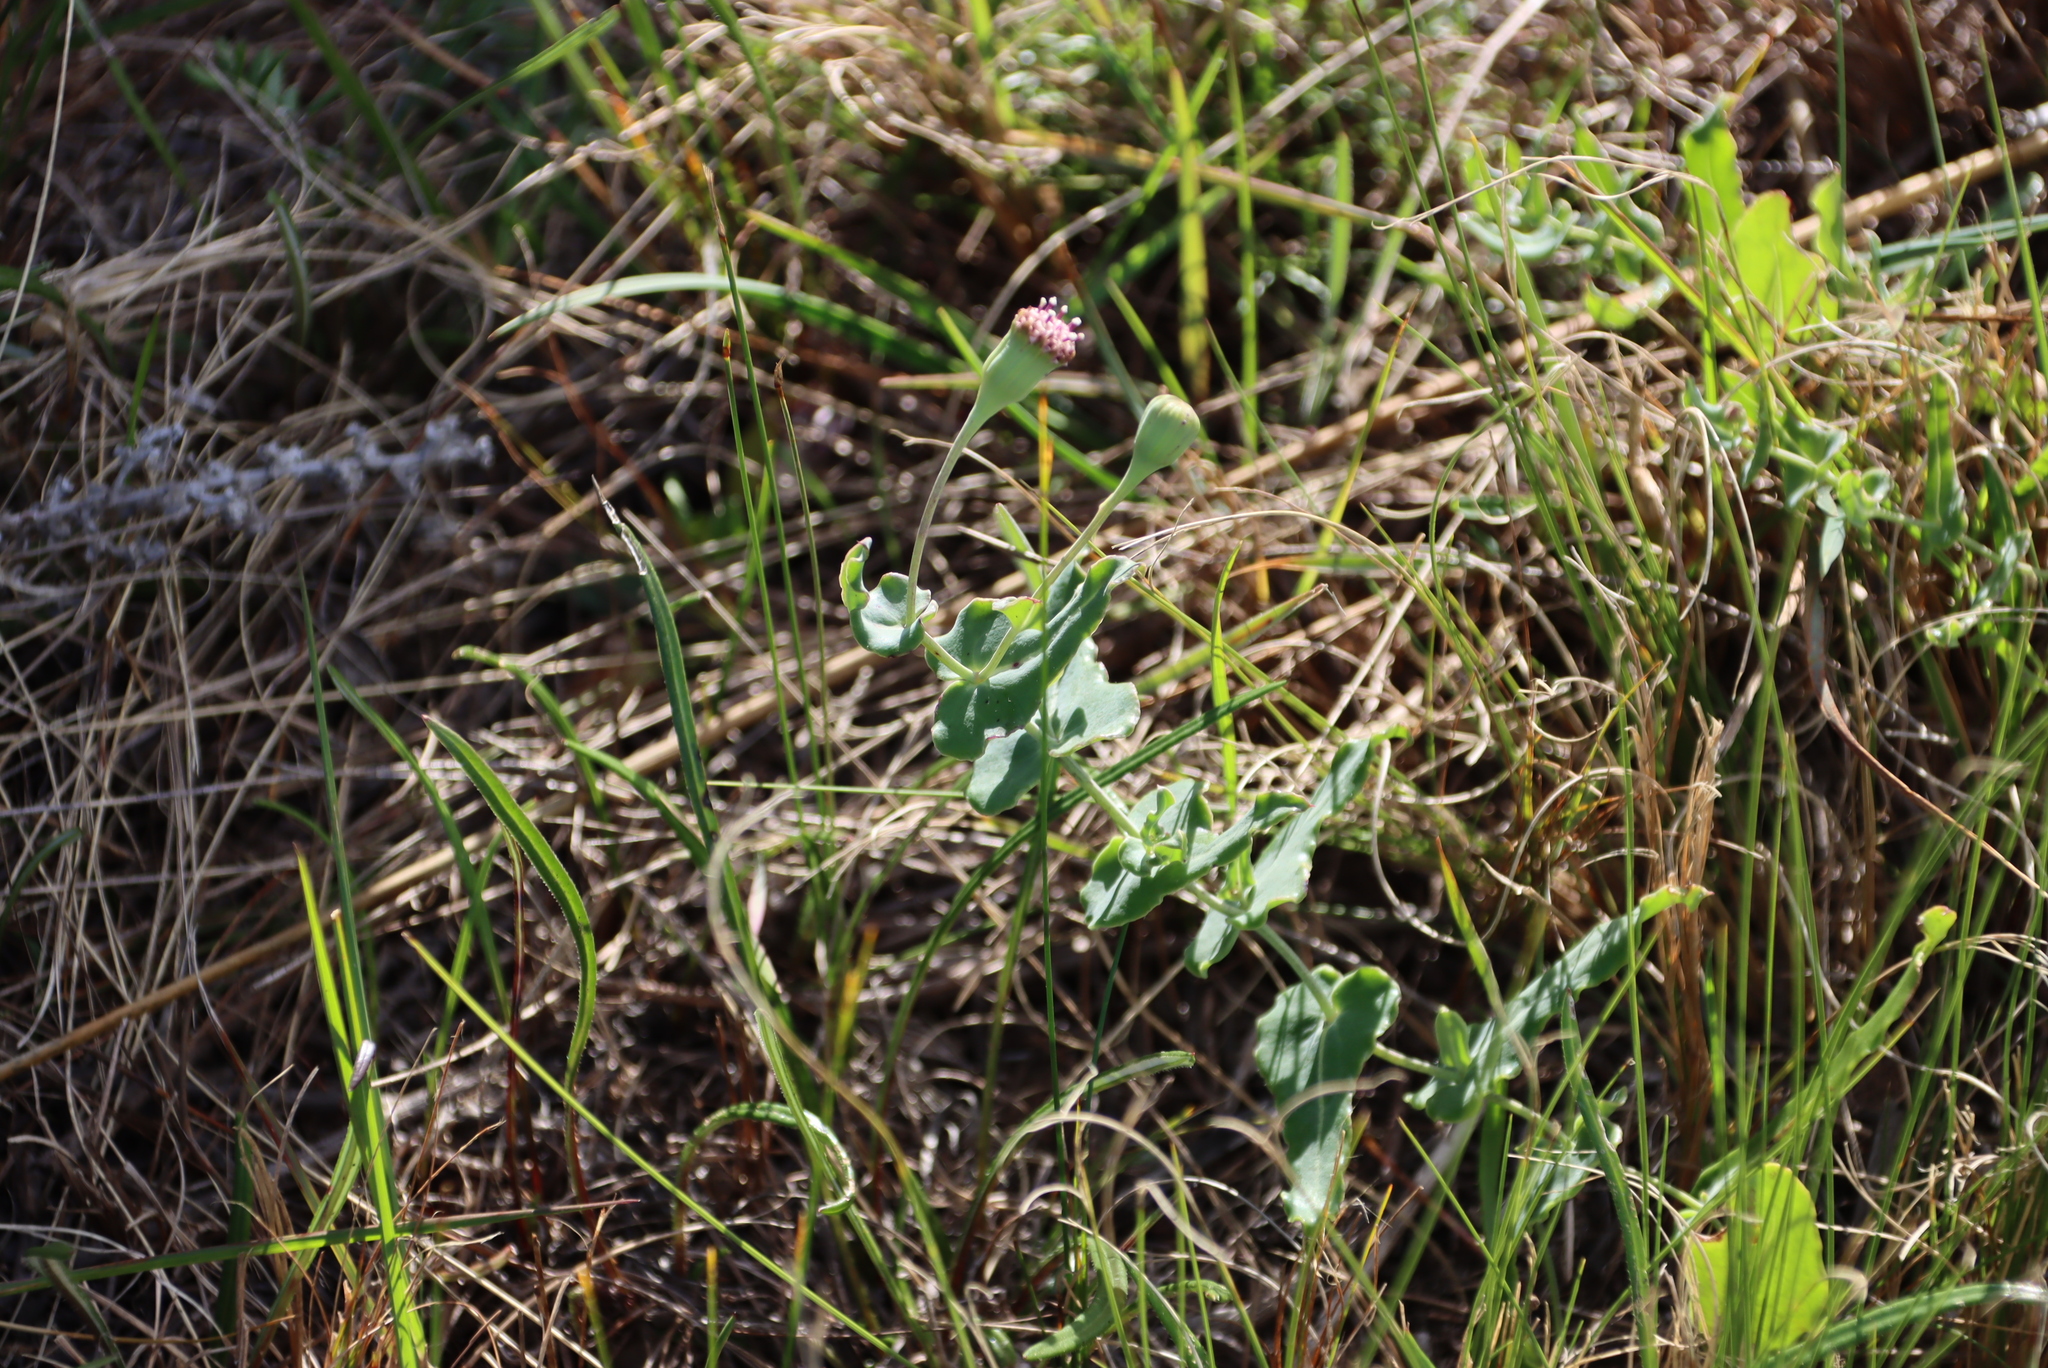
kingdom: Plantae
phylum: Tracheophyta
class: Magnoliopsida
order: Asterales
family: Asteraceae
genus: Othonna
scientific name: Othonna undulosa
